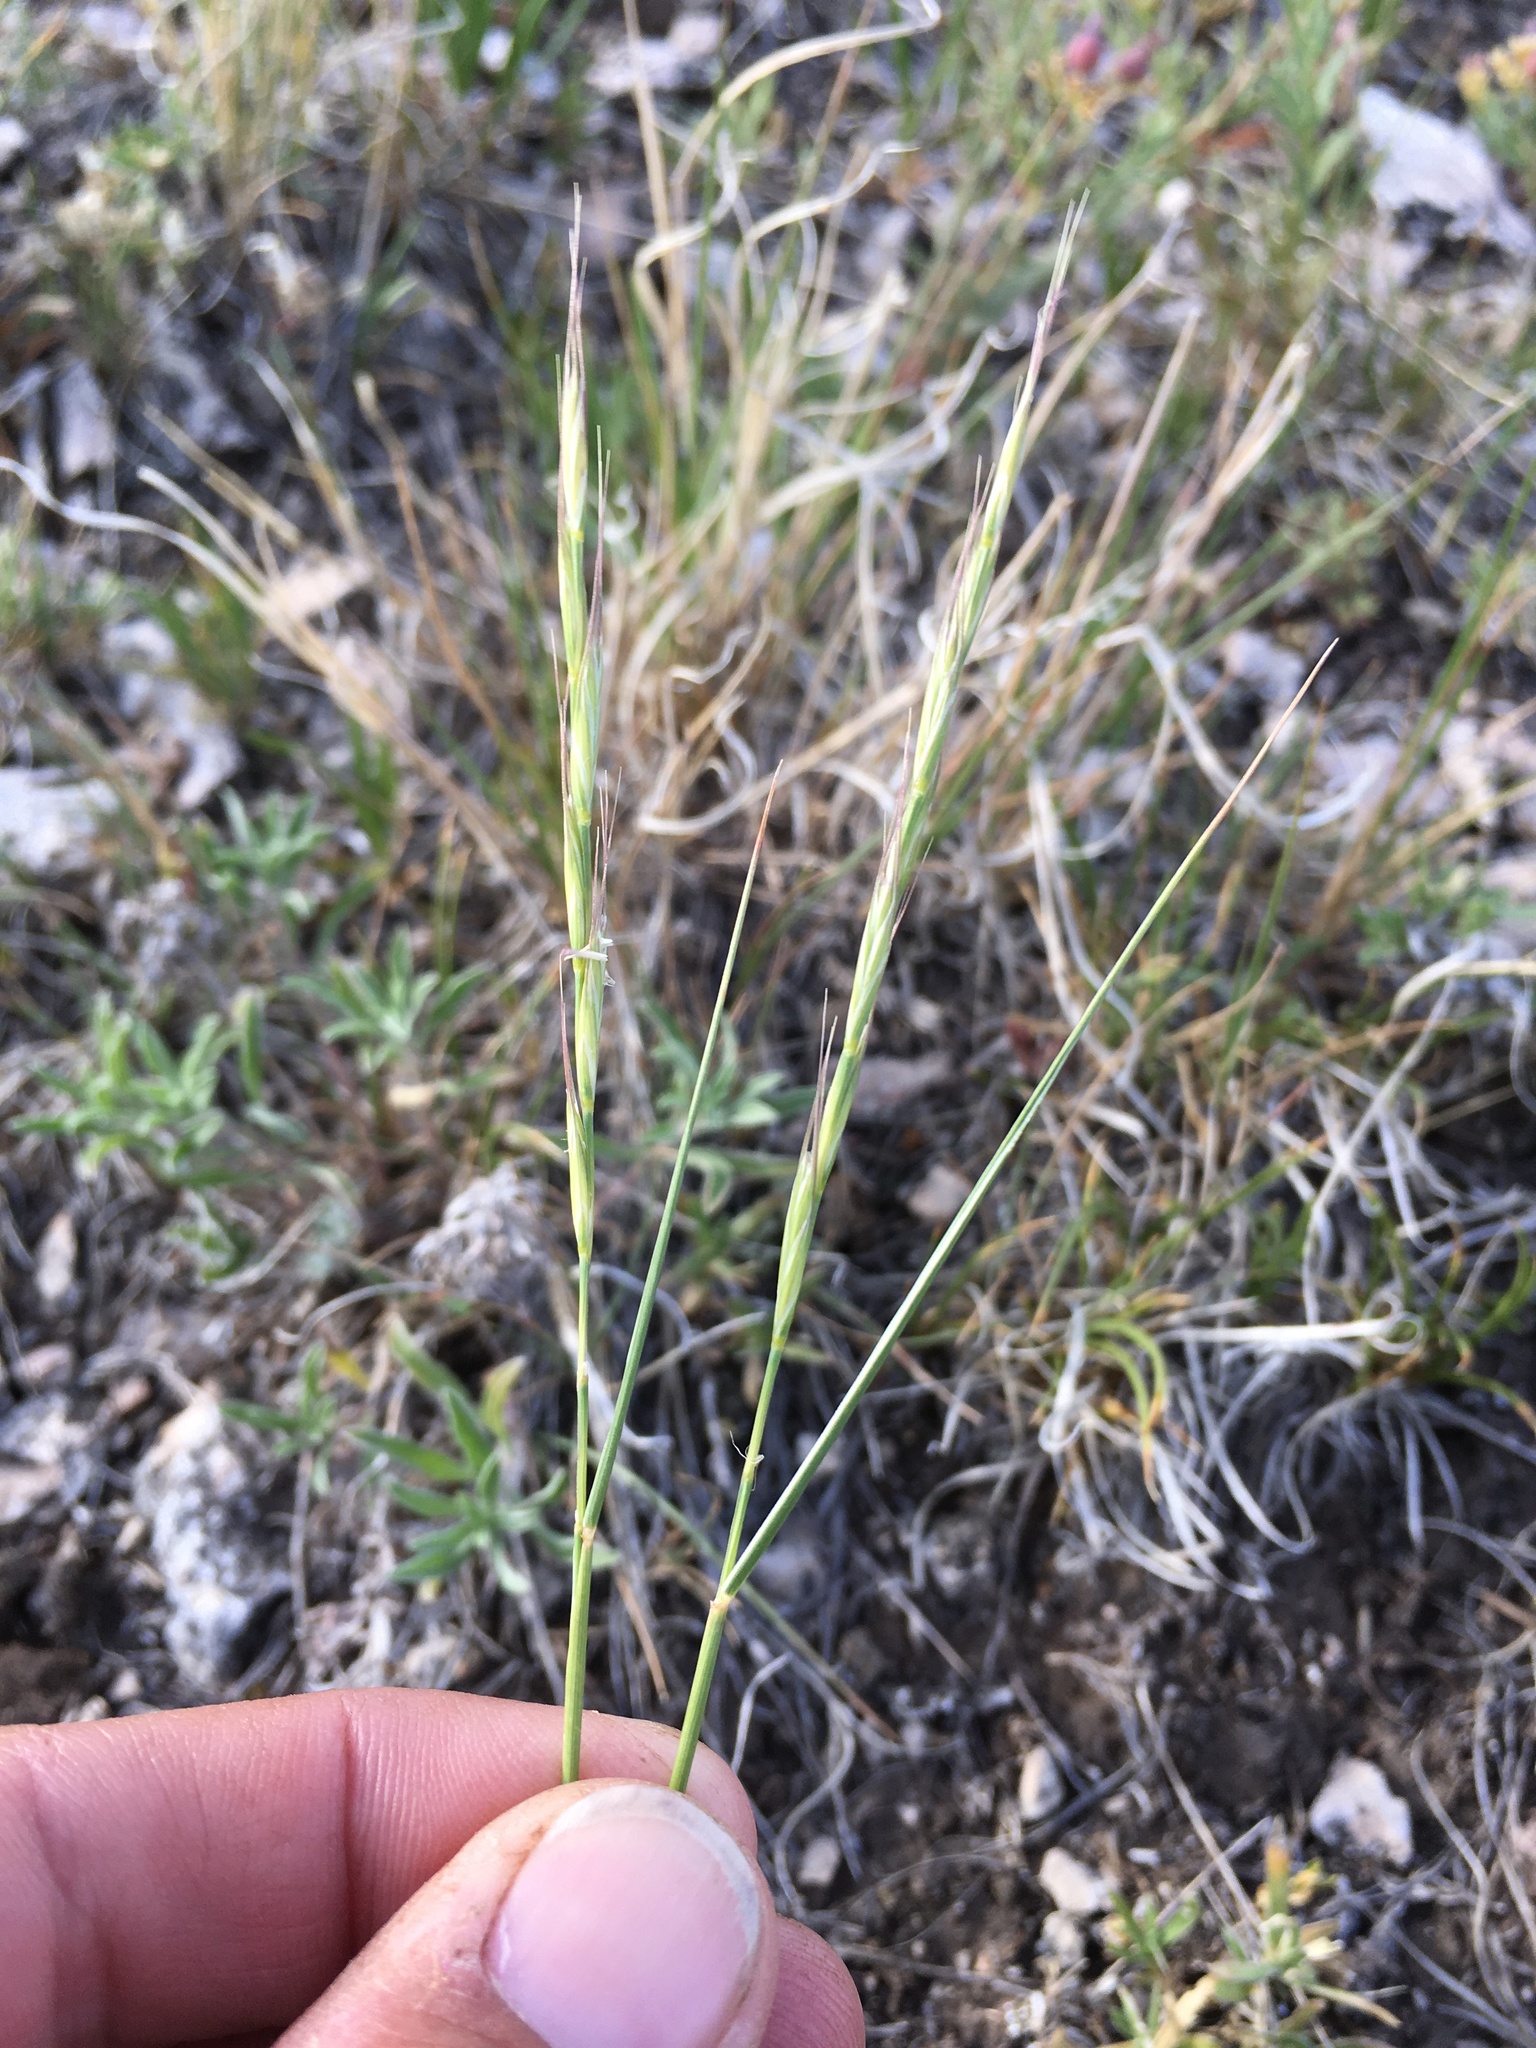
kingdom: Plantae
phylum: Tracheophyta
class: Liliopsida
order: Poales
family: Poaceae
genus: Pseudoroegneria
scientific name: Pseudoroegneria spicata
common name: Bluebunch wheatgrass
